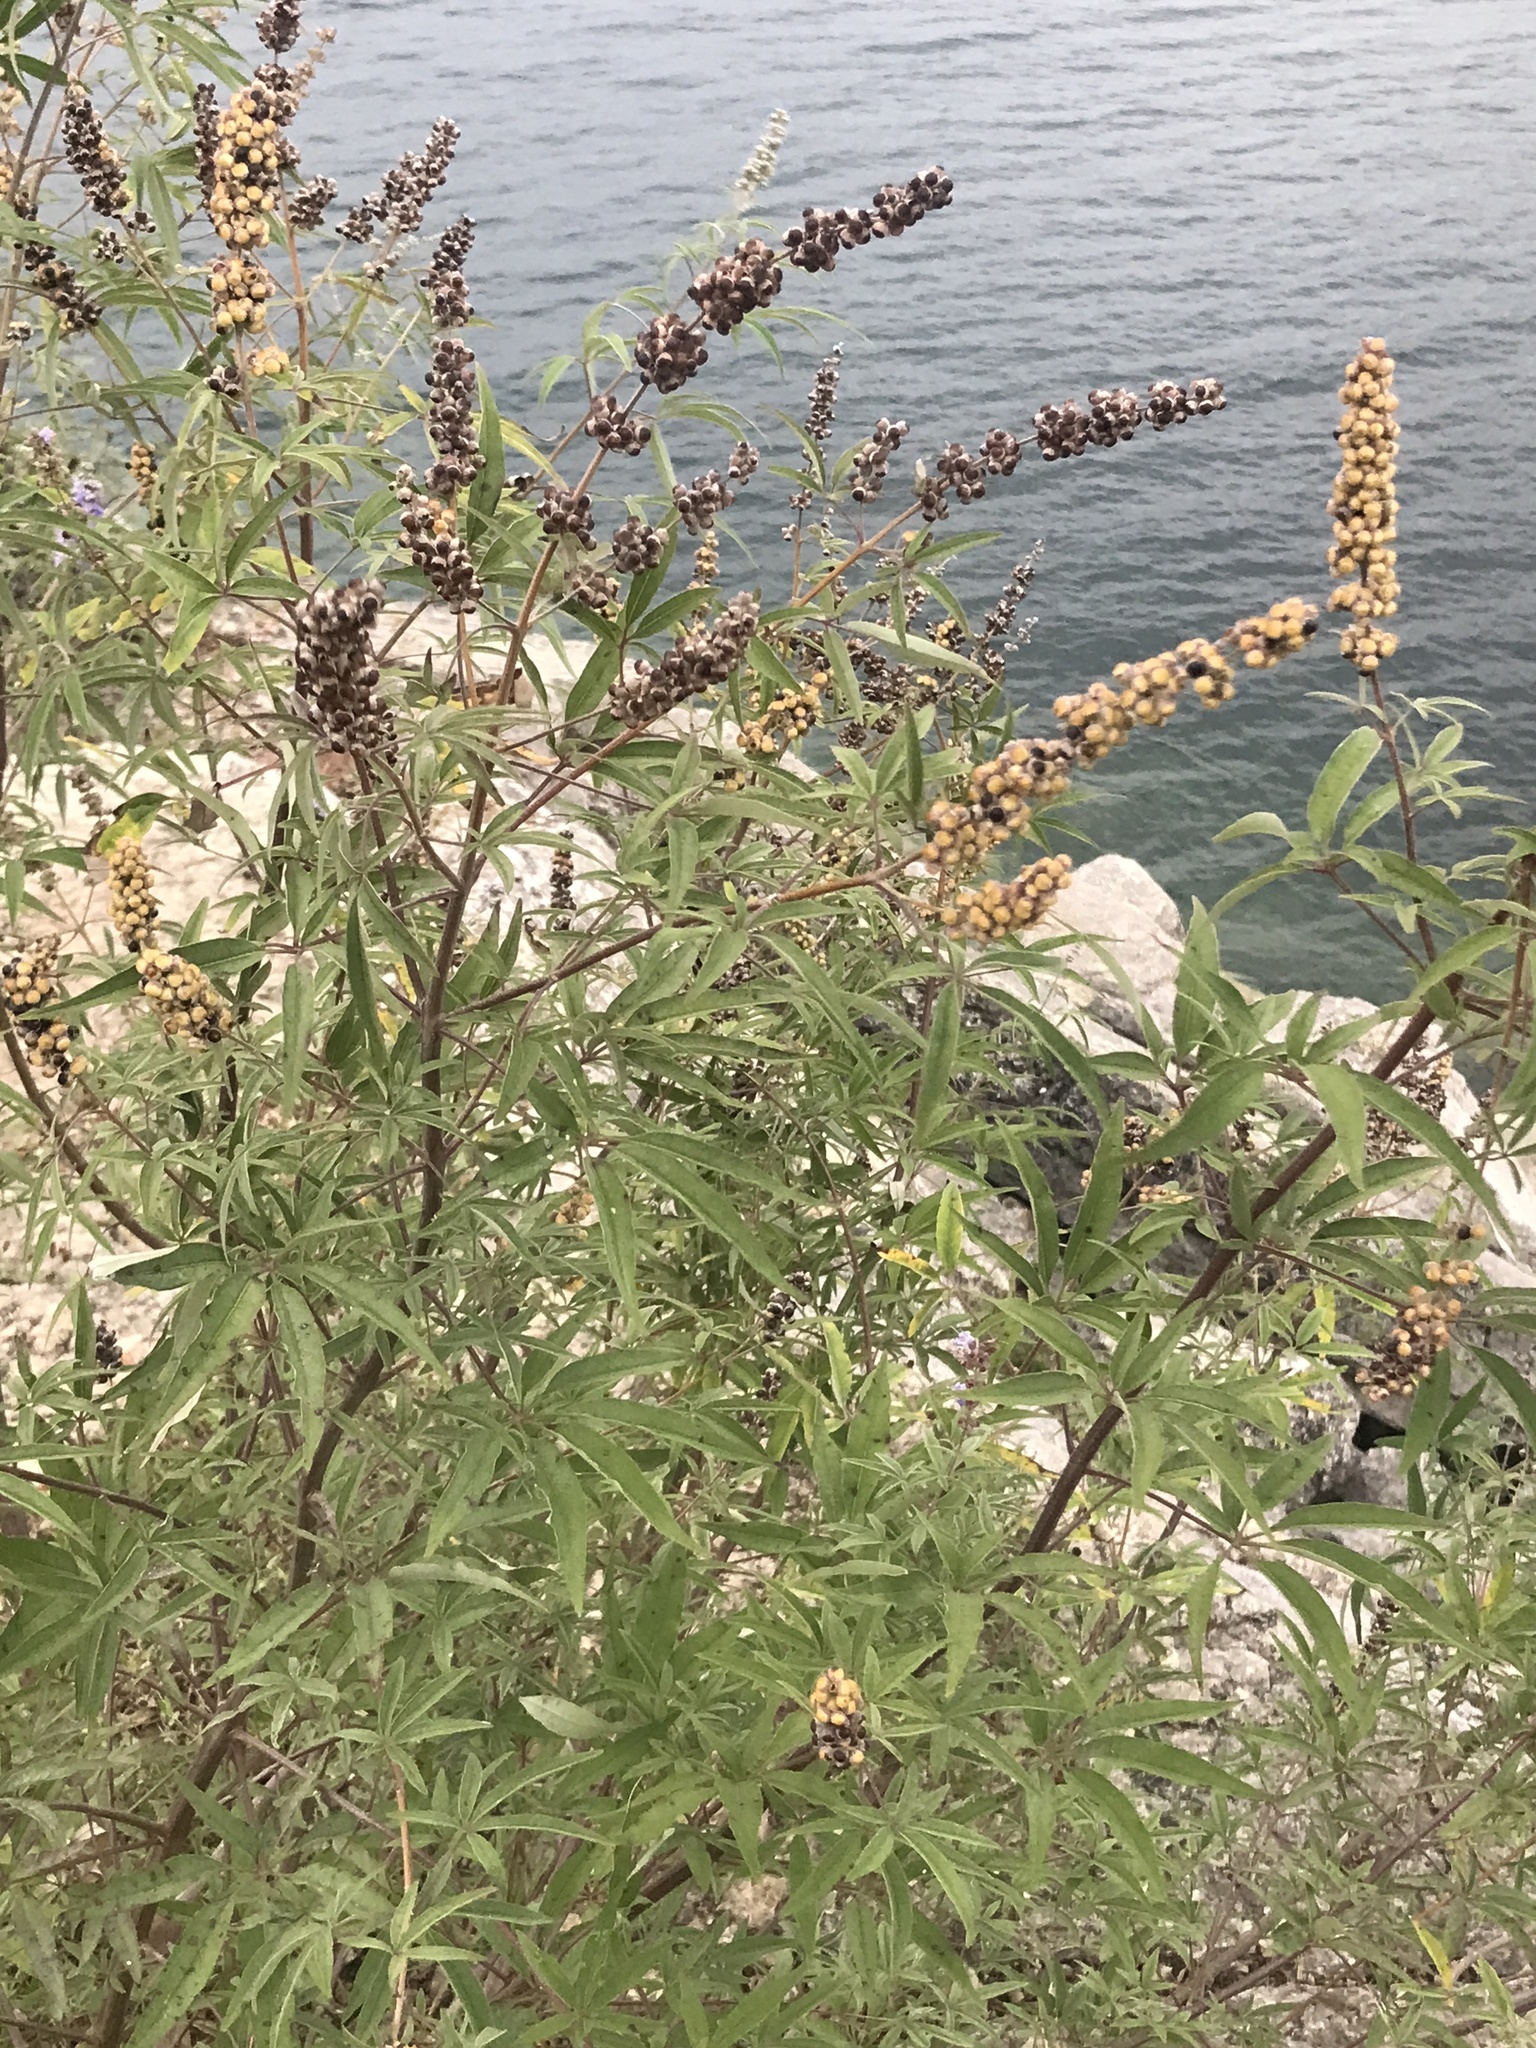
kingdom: Plantae
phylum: Tracheophyta
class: Magnoliopsida
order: Lamiales
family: Lamiaceae
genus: Vitex
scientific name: Vitex agnus-castus
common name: Chasteberry
